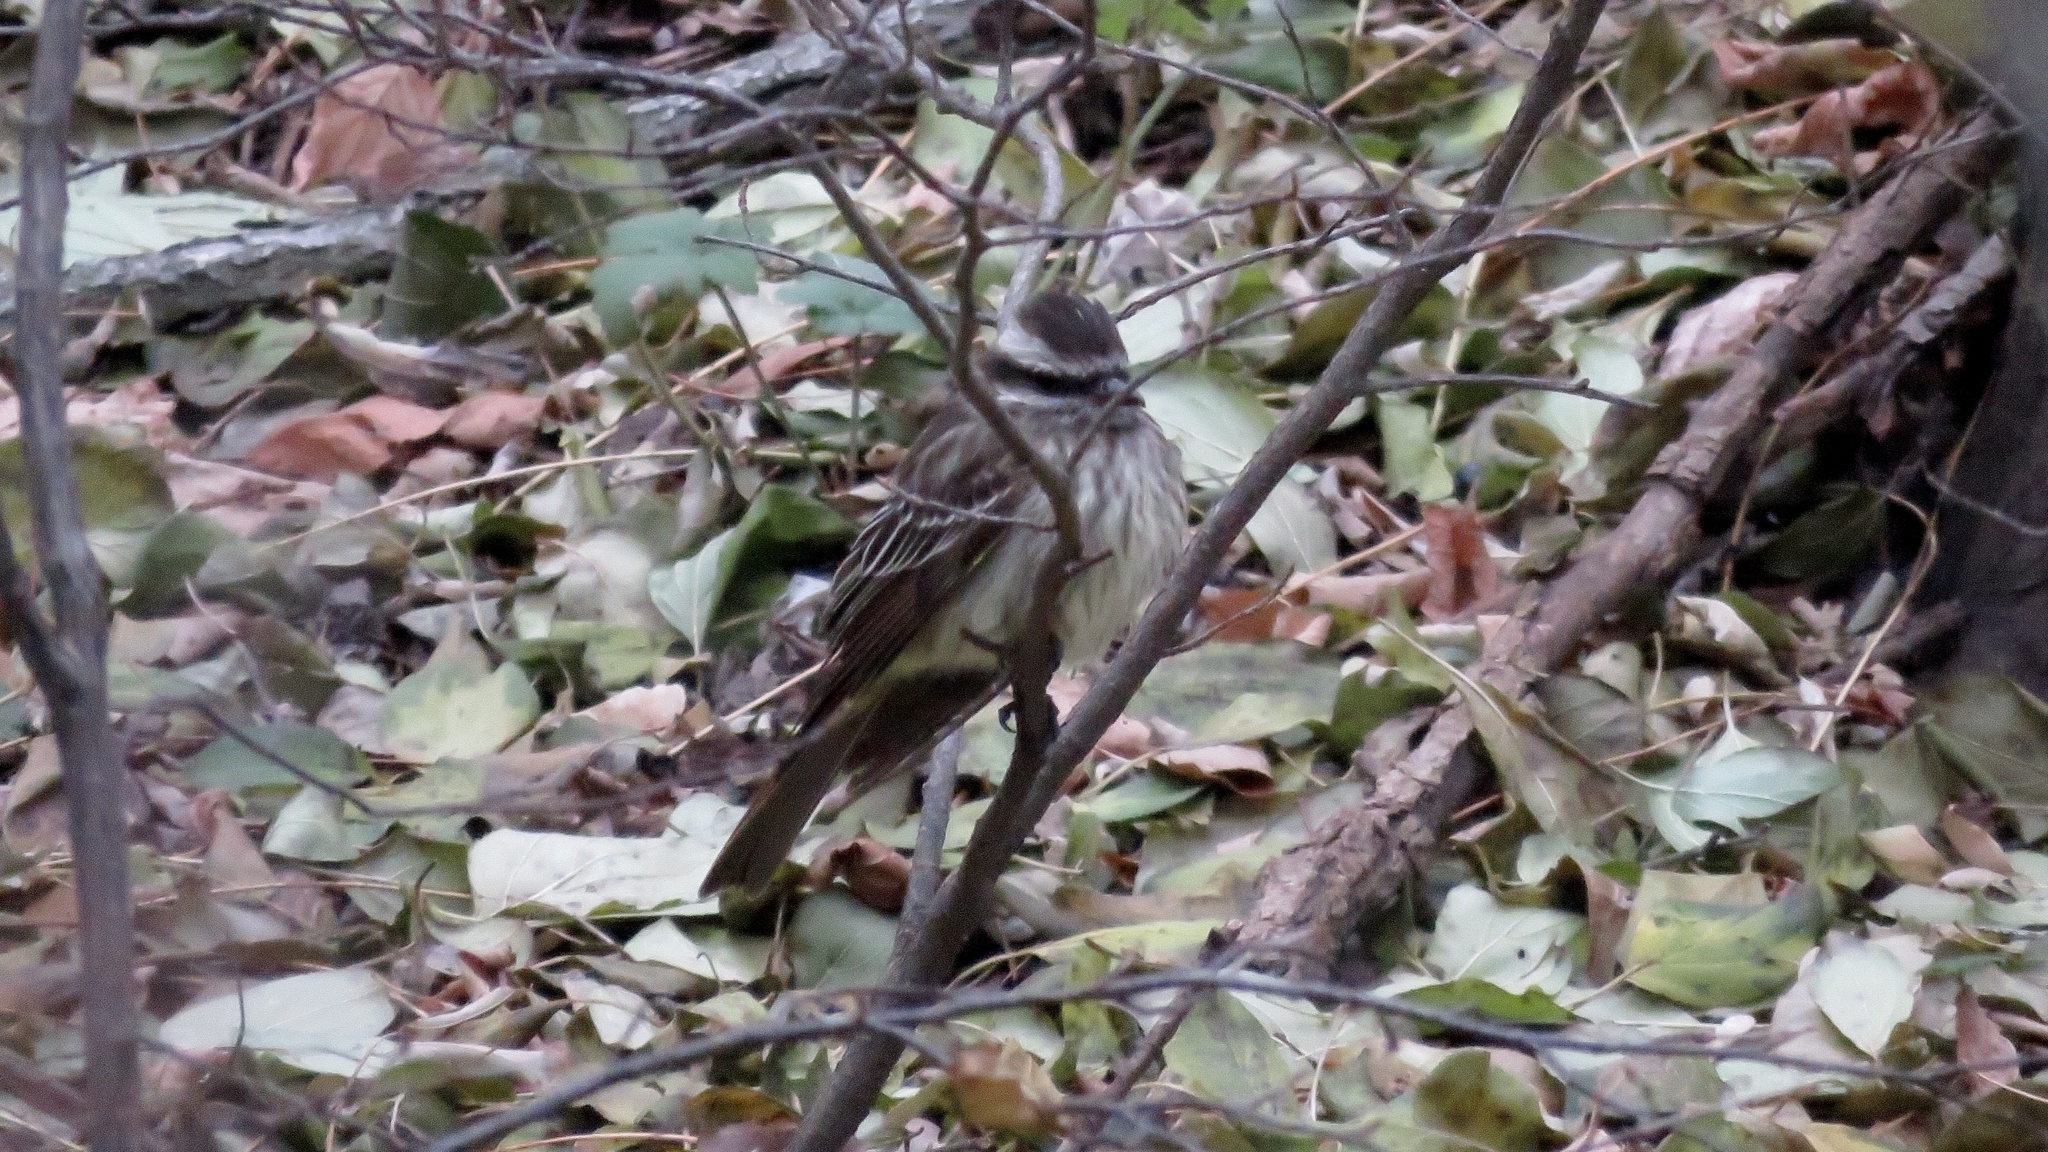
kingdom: Animalia
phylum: Chordata
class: Aves
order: Passeriformes
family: Tyrannidae
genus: Empidonomus
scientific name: Empidonomus varius
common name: Variegated flycatcher
